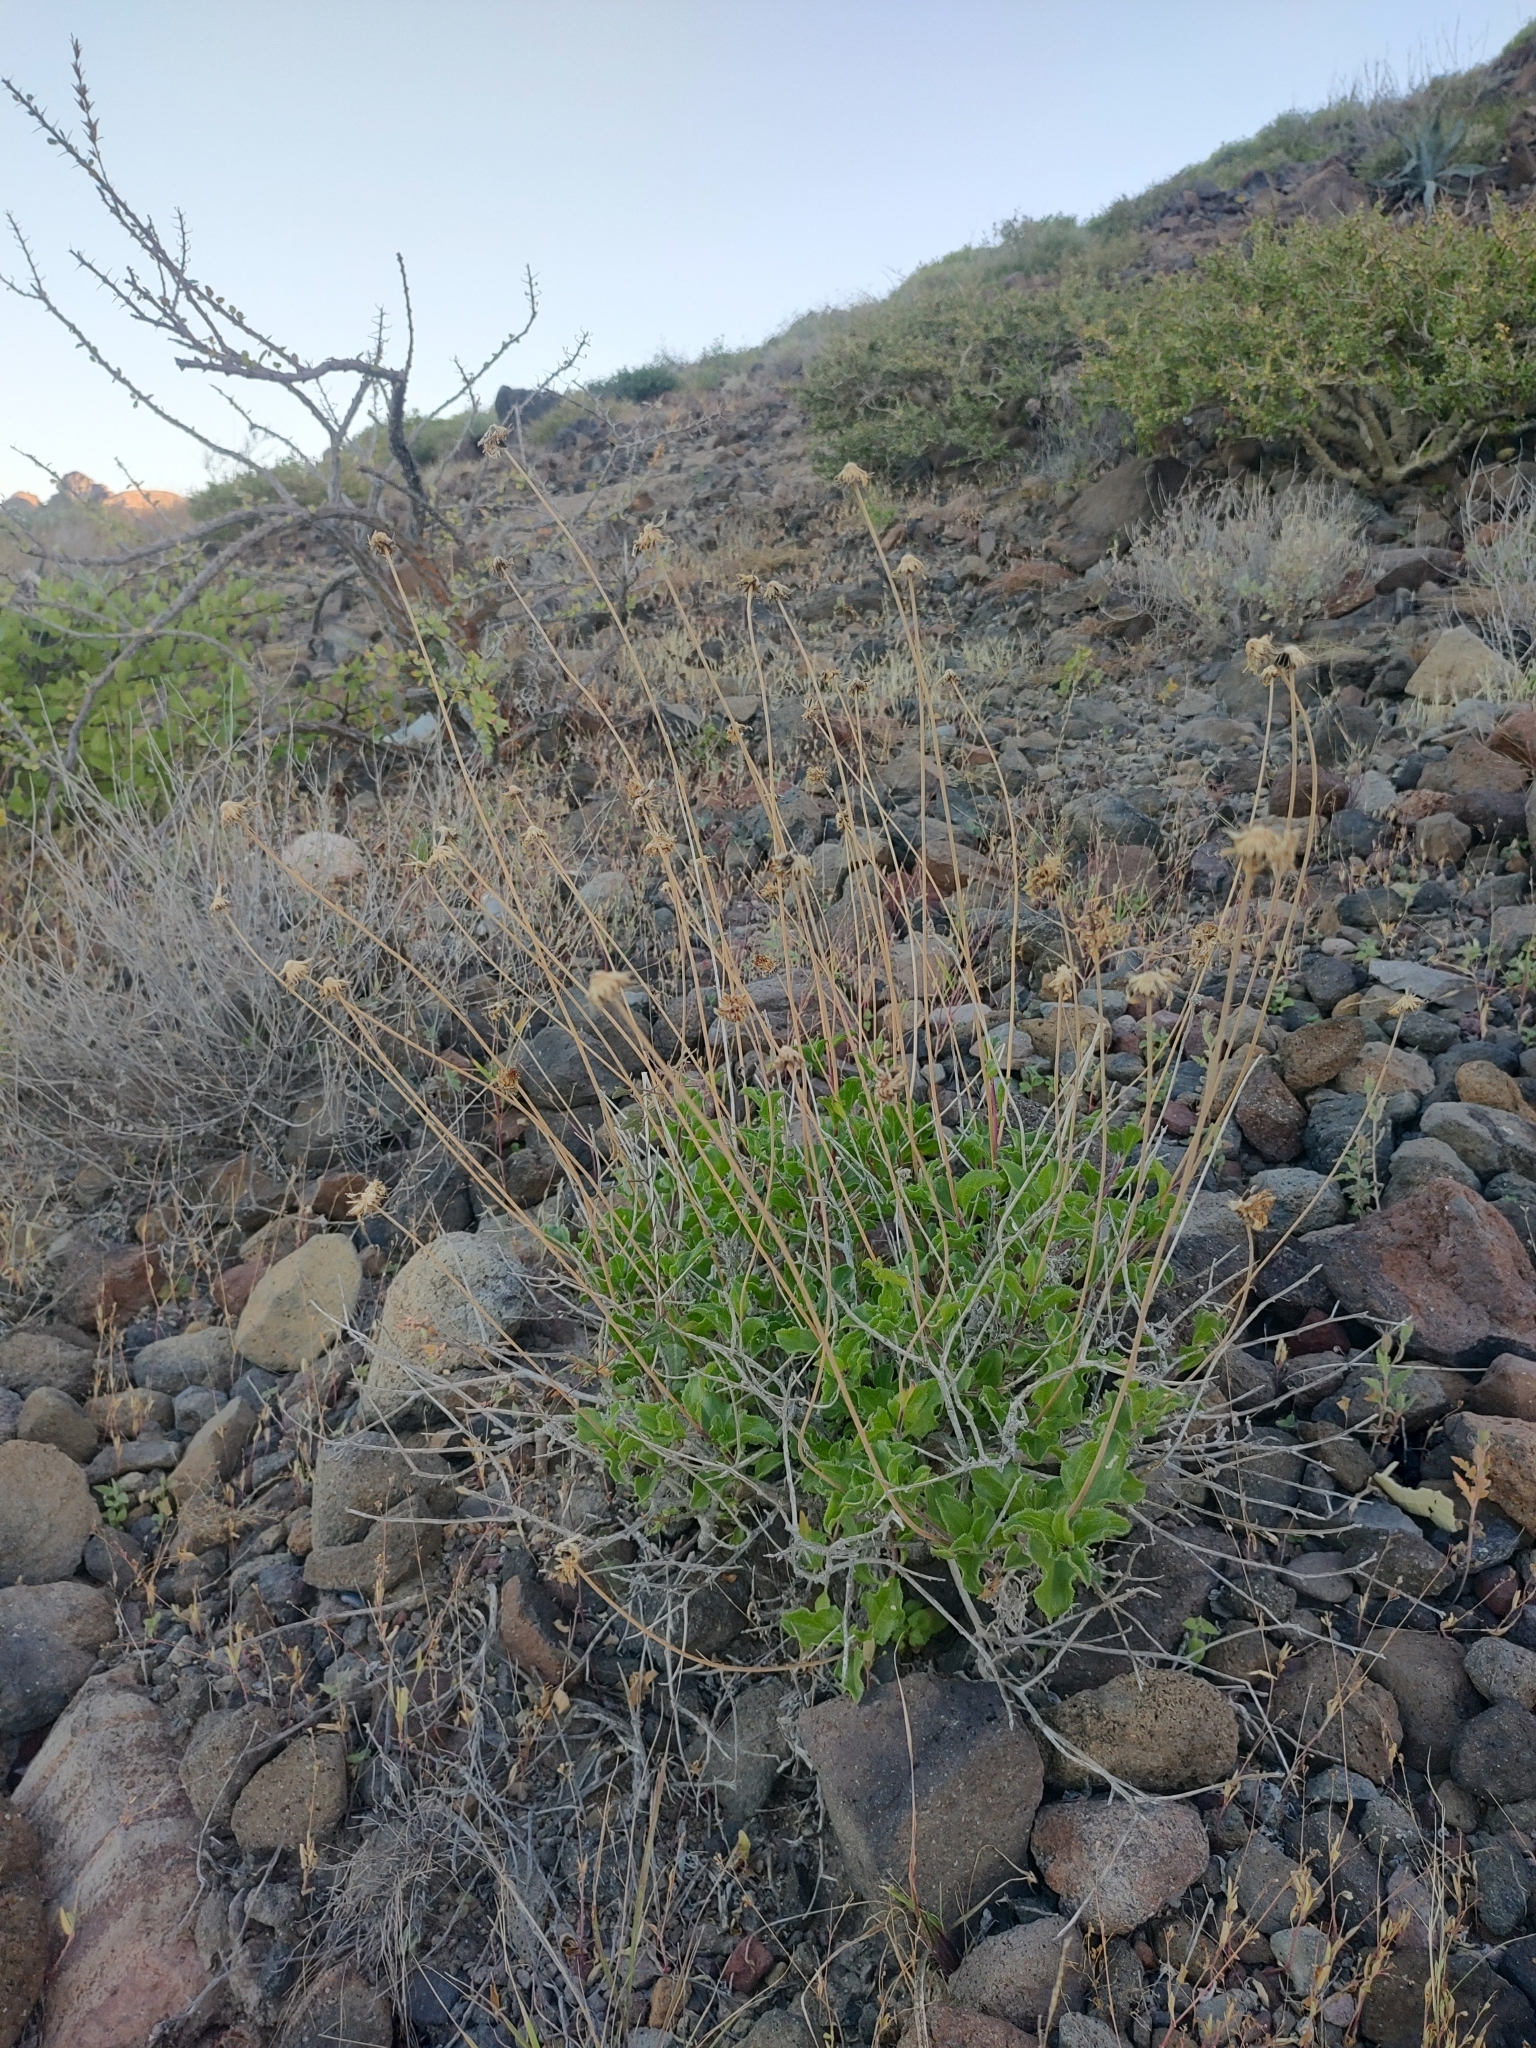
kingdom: Plantae
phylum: Tracheophyta
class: Magnoliopsida
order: Asterales
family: Asteraceae
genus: Encelia
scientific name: Encelia balandra
